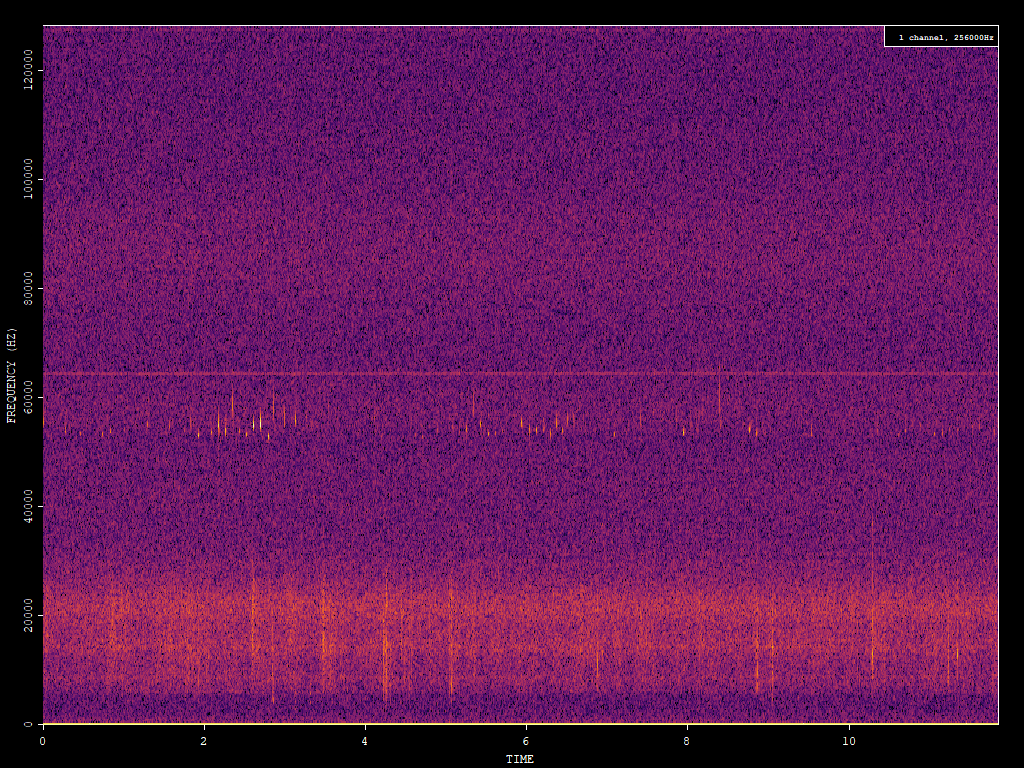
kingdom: Animalia
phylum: Chordata
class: Mammalia
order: Chiroptera
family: Vespertilionidae
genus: Pipistrellus
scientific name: Pipistrellus pygmaeus
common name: Soprano pipistrelle
